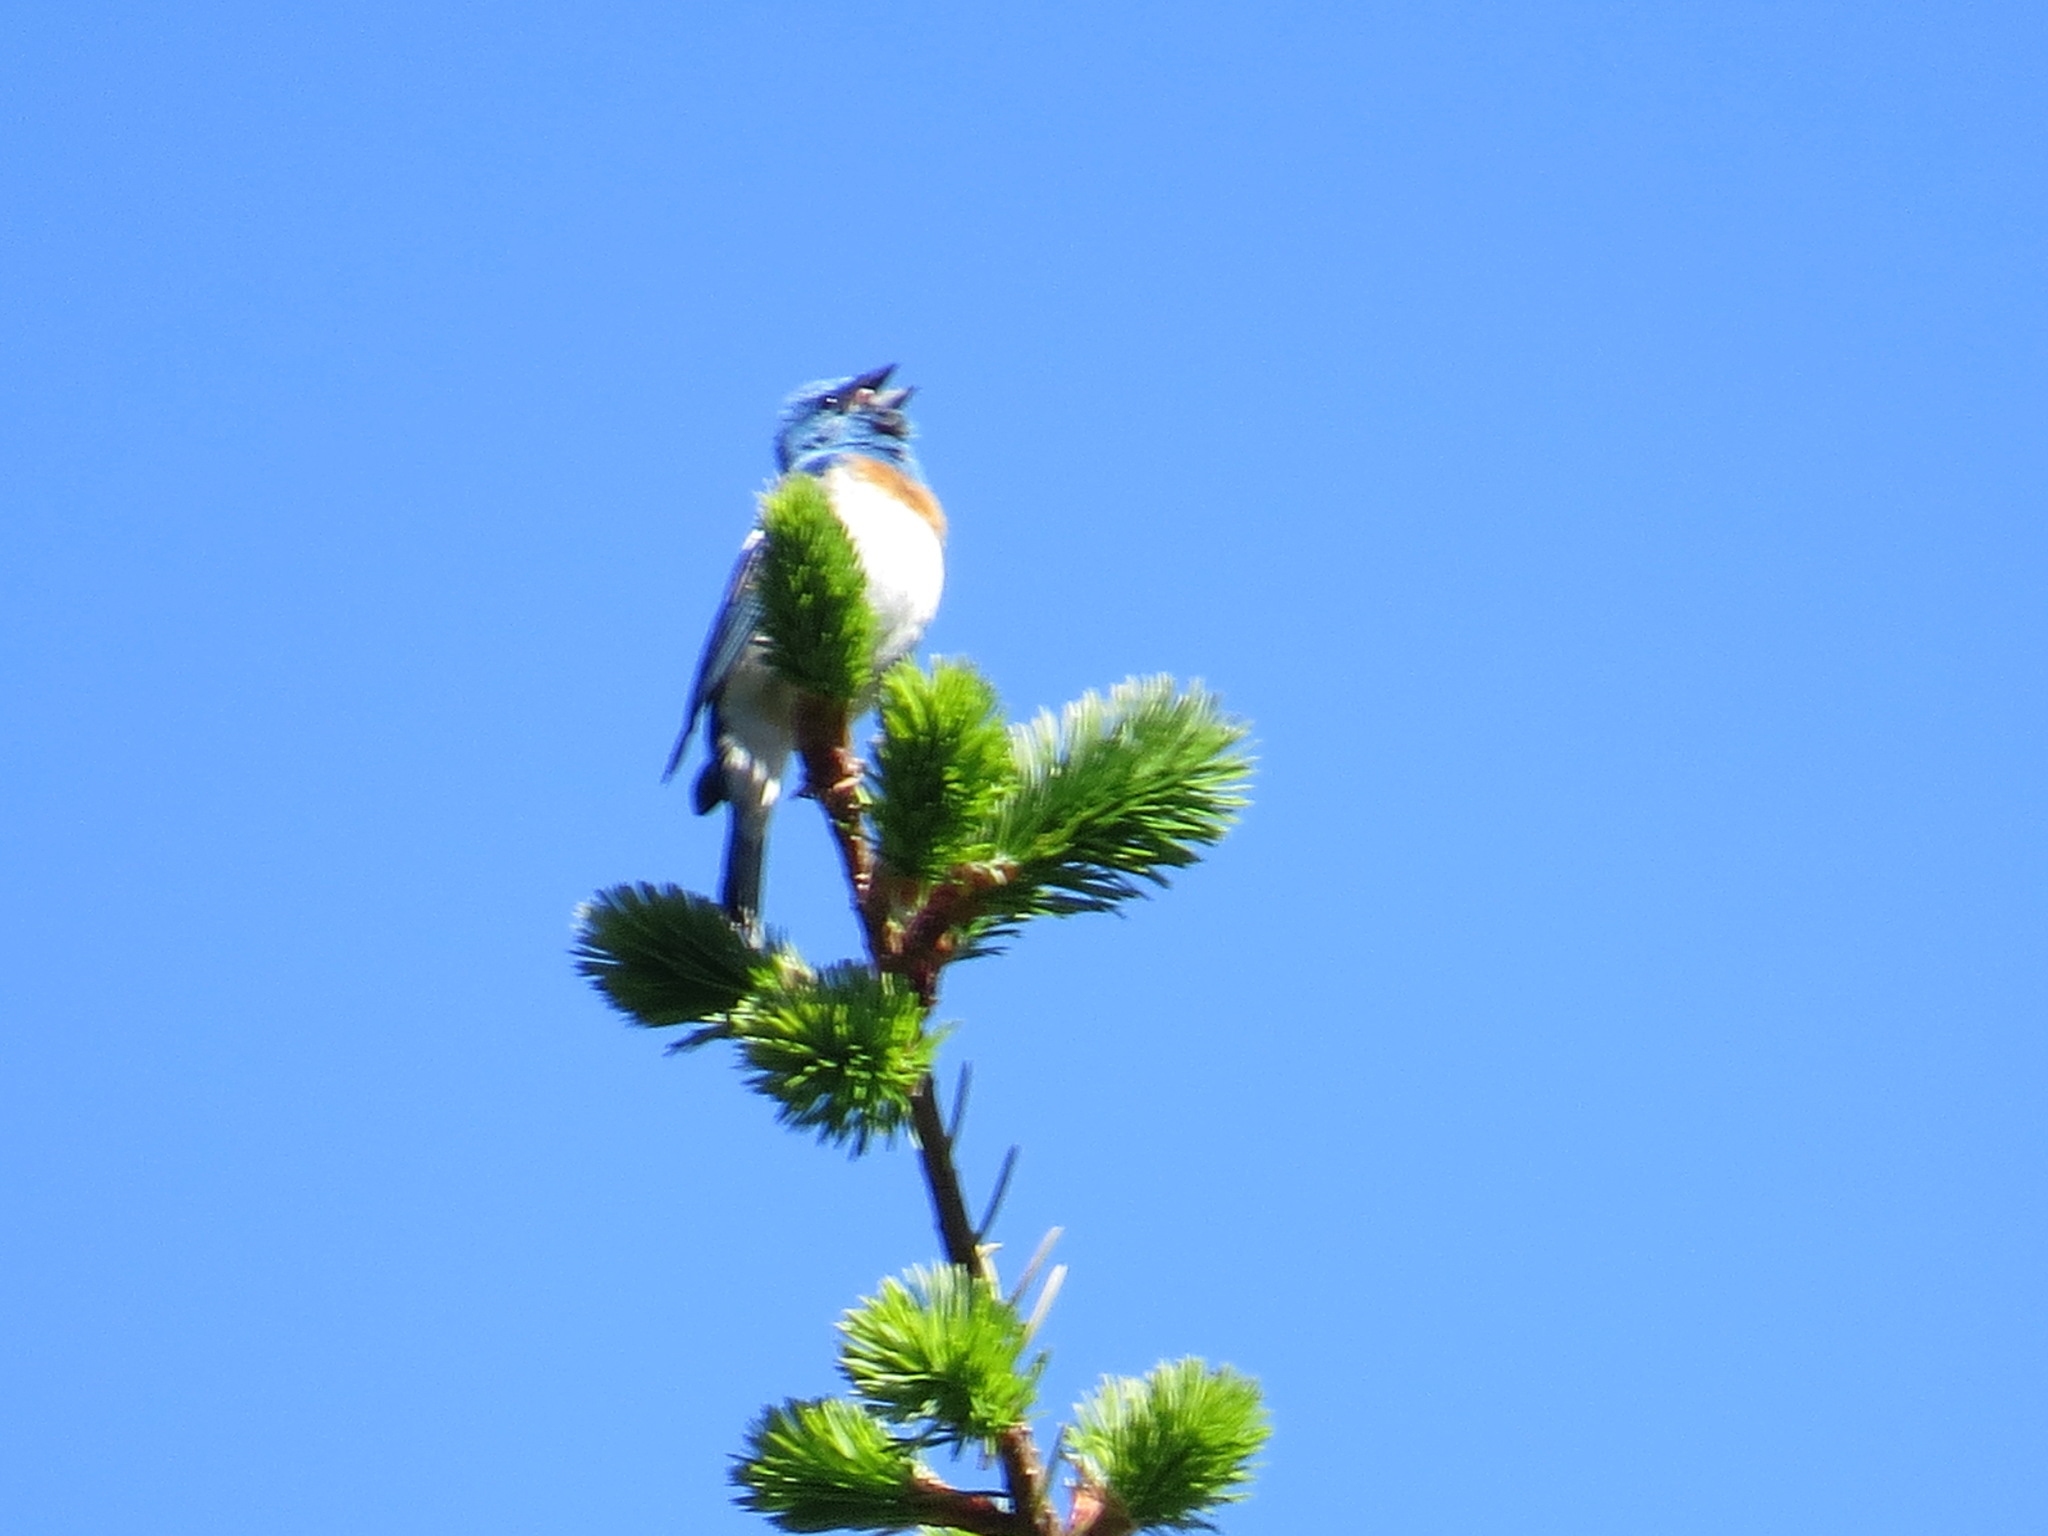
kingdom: Animalia
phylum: Chordata
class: Aves
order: Passeriformes
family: Cardinalidae
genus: Passerina
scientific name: Passerina amoena
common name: Lazuli bunting
